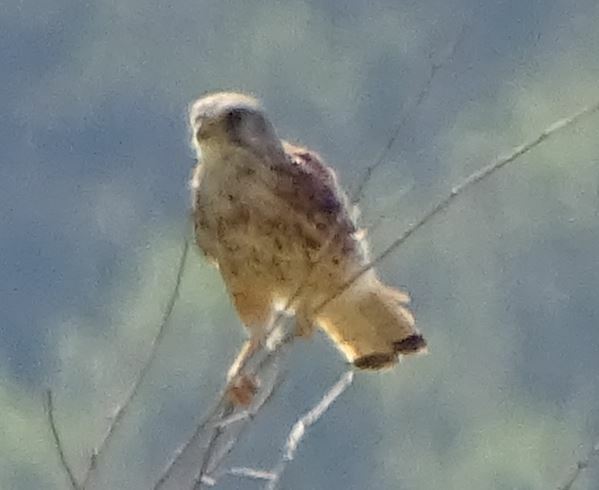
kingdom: Animalia
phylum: Chordata
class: Aves
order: Falconiformes
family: Falconidae
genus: Falco
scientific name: Falco tinnunculus
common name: Common kestrel
